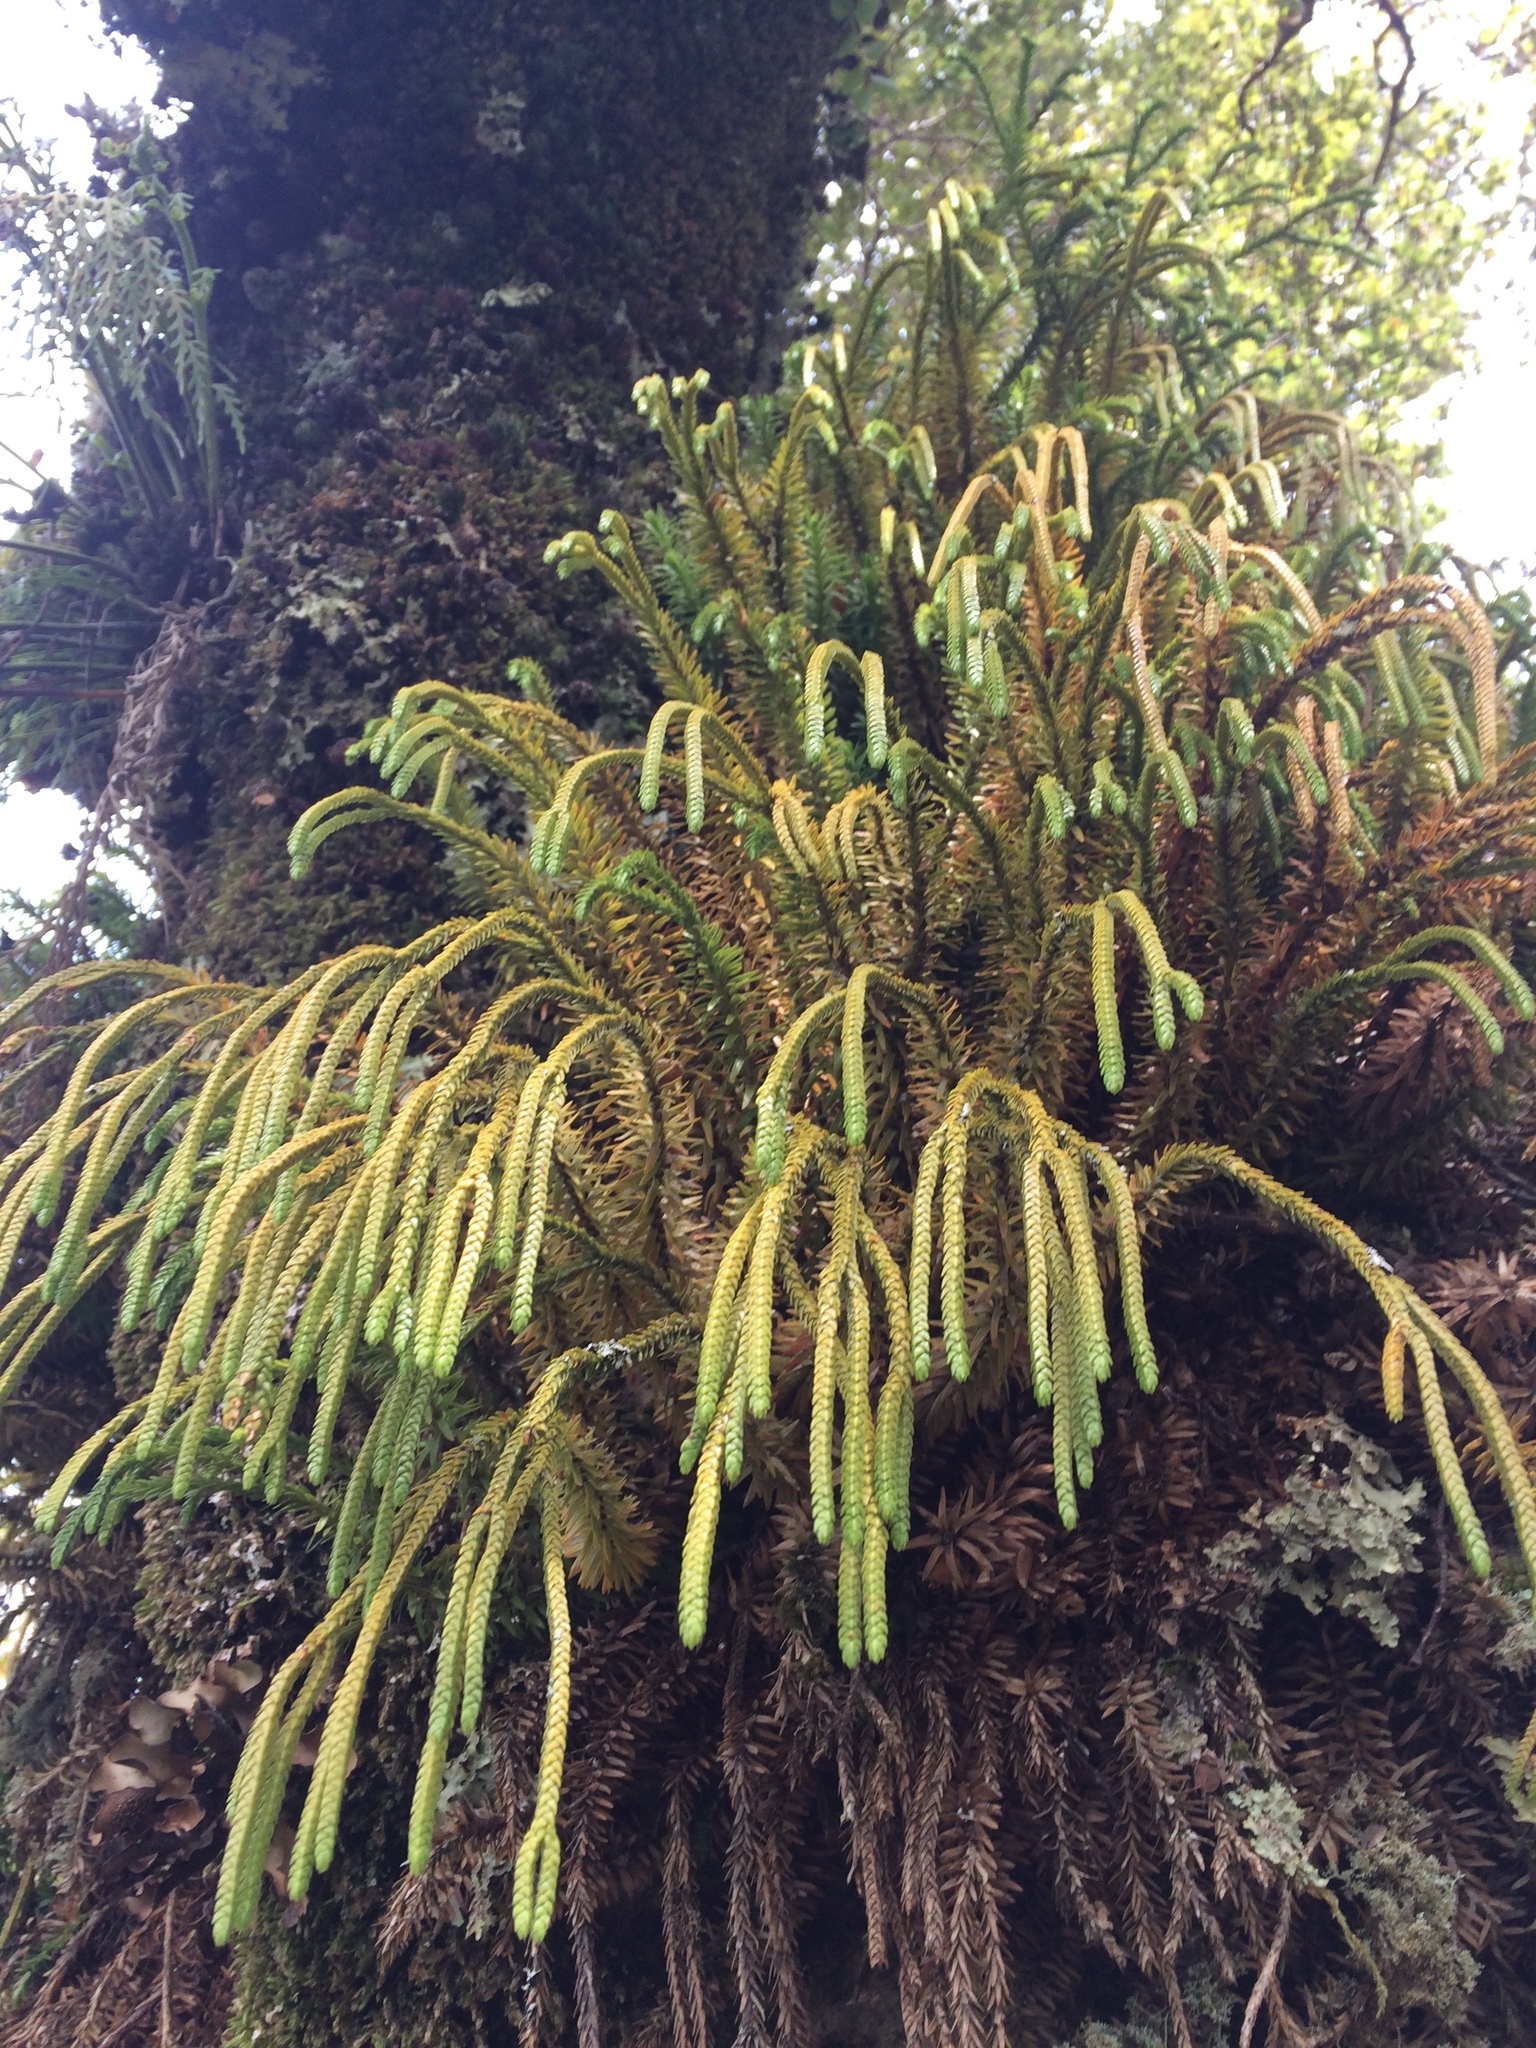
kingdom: Plantae
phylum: Tracheophyta
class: Lycopodiopsida
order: Lycopodiales
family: Lycopodiaceae
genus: Phlegmariurus
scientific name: Phlegmariurus varius
